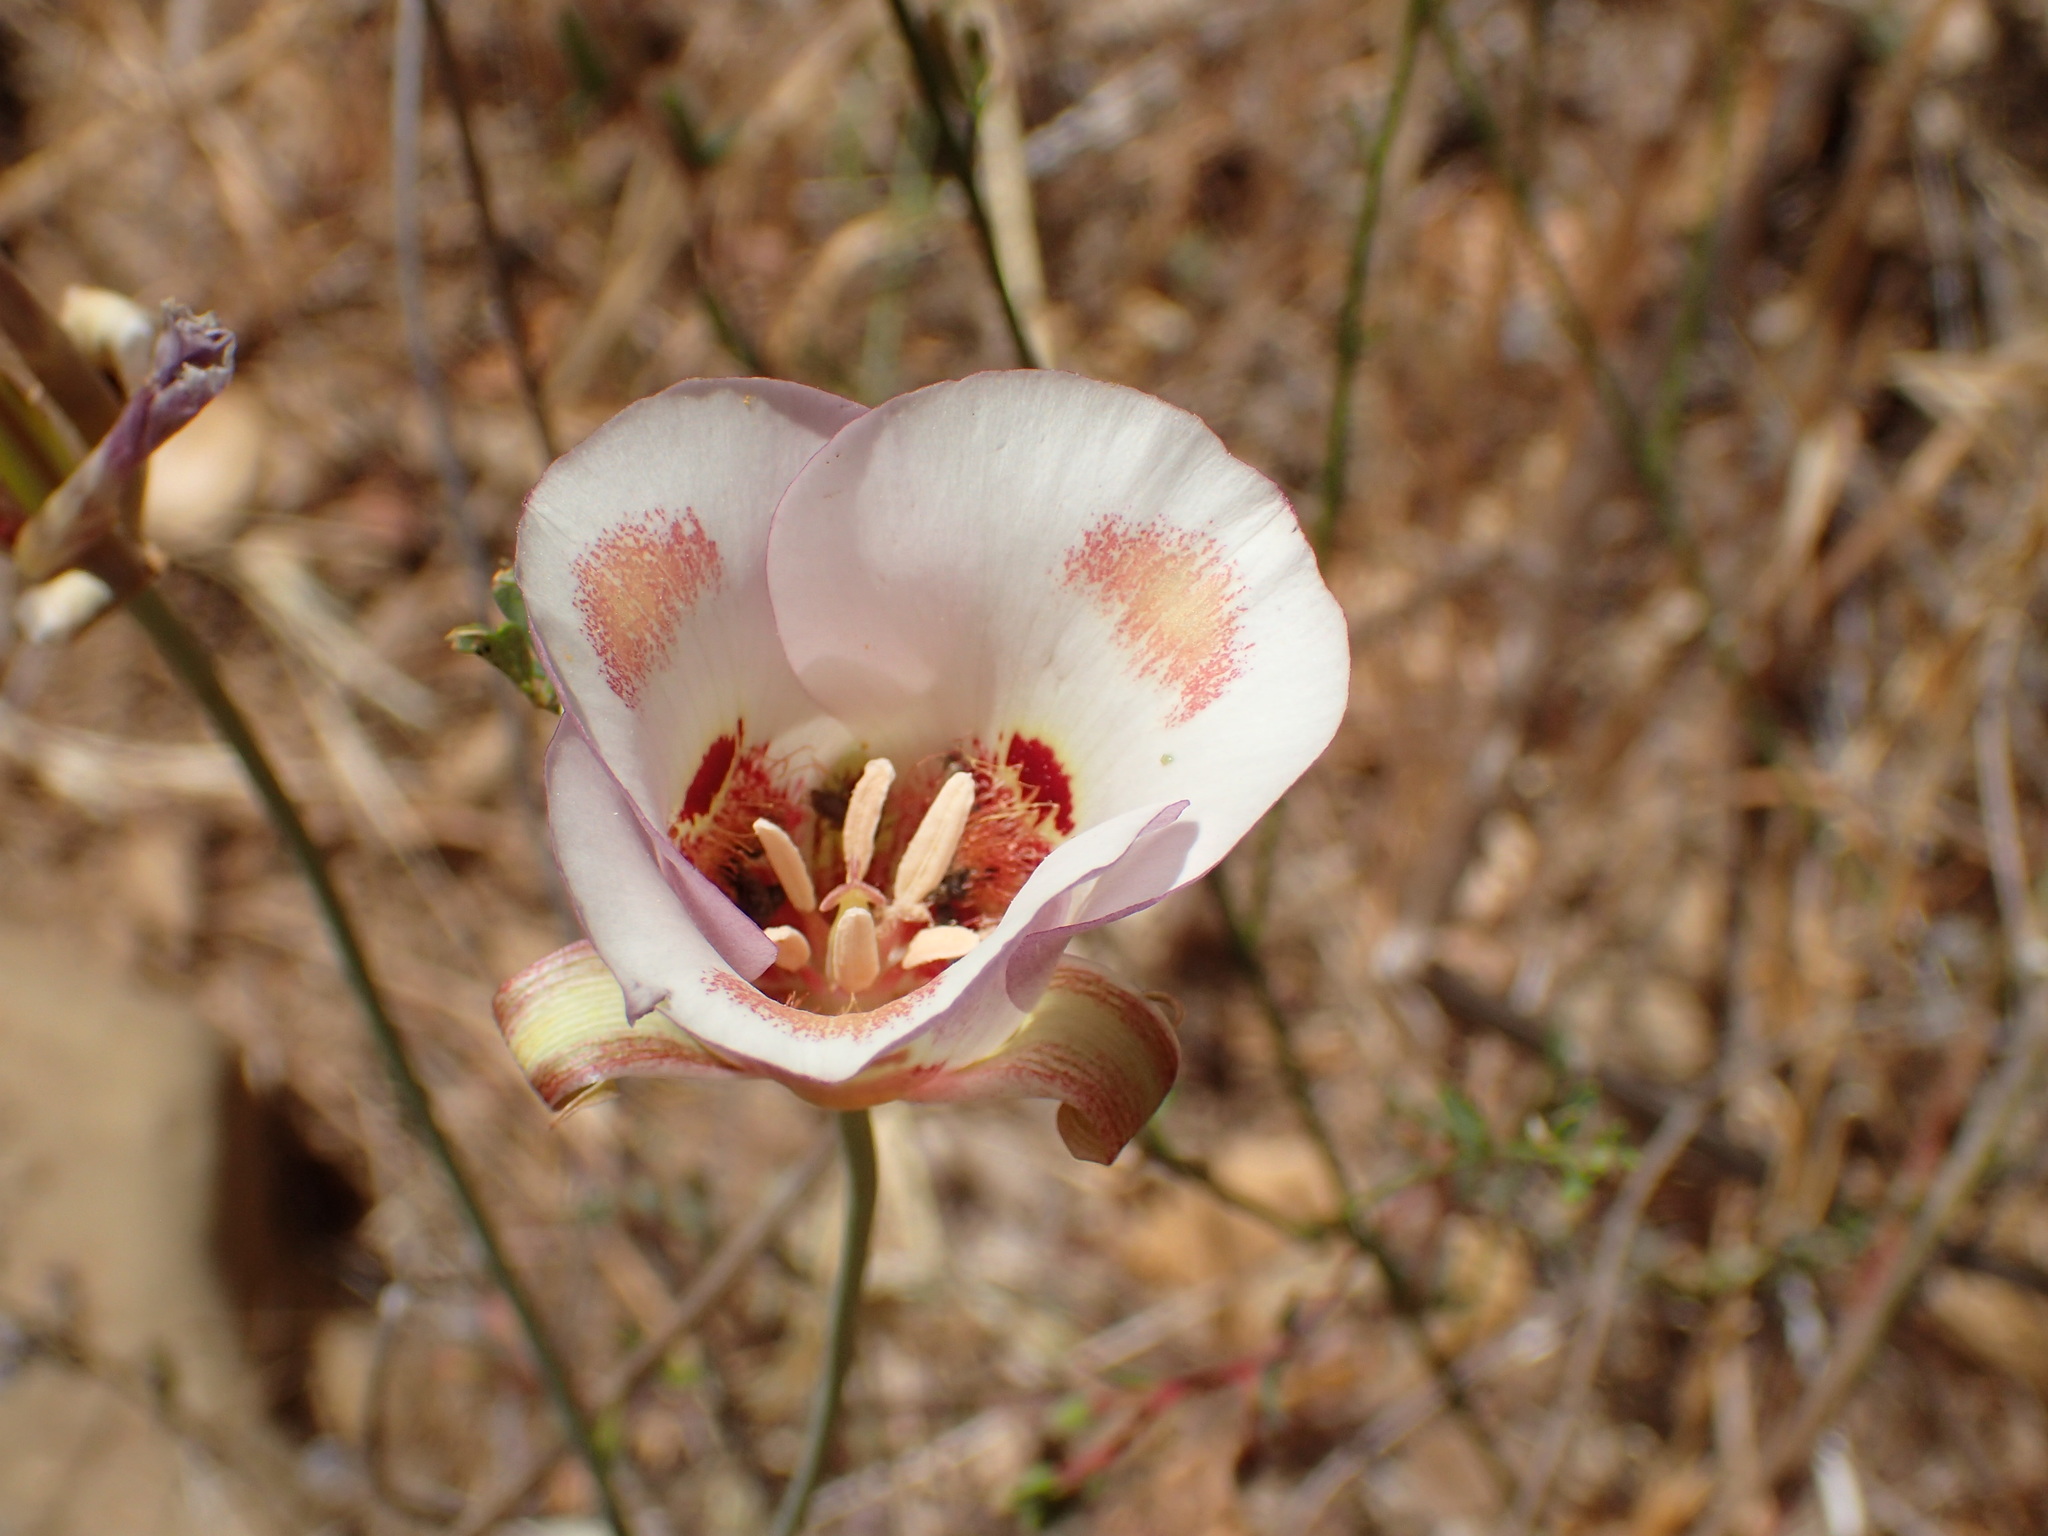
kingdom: Plantae
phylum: Tracheophyta
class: Liliopsida
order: Liliales
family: Liliaceae
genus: Calochortus
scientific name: Calochortus venustus
